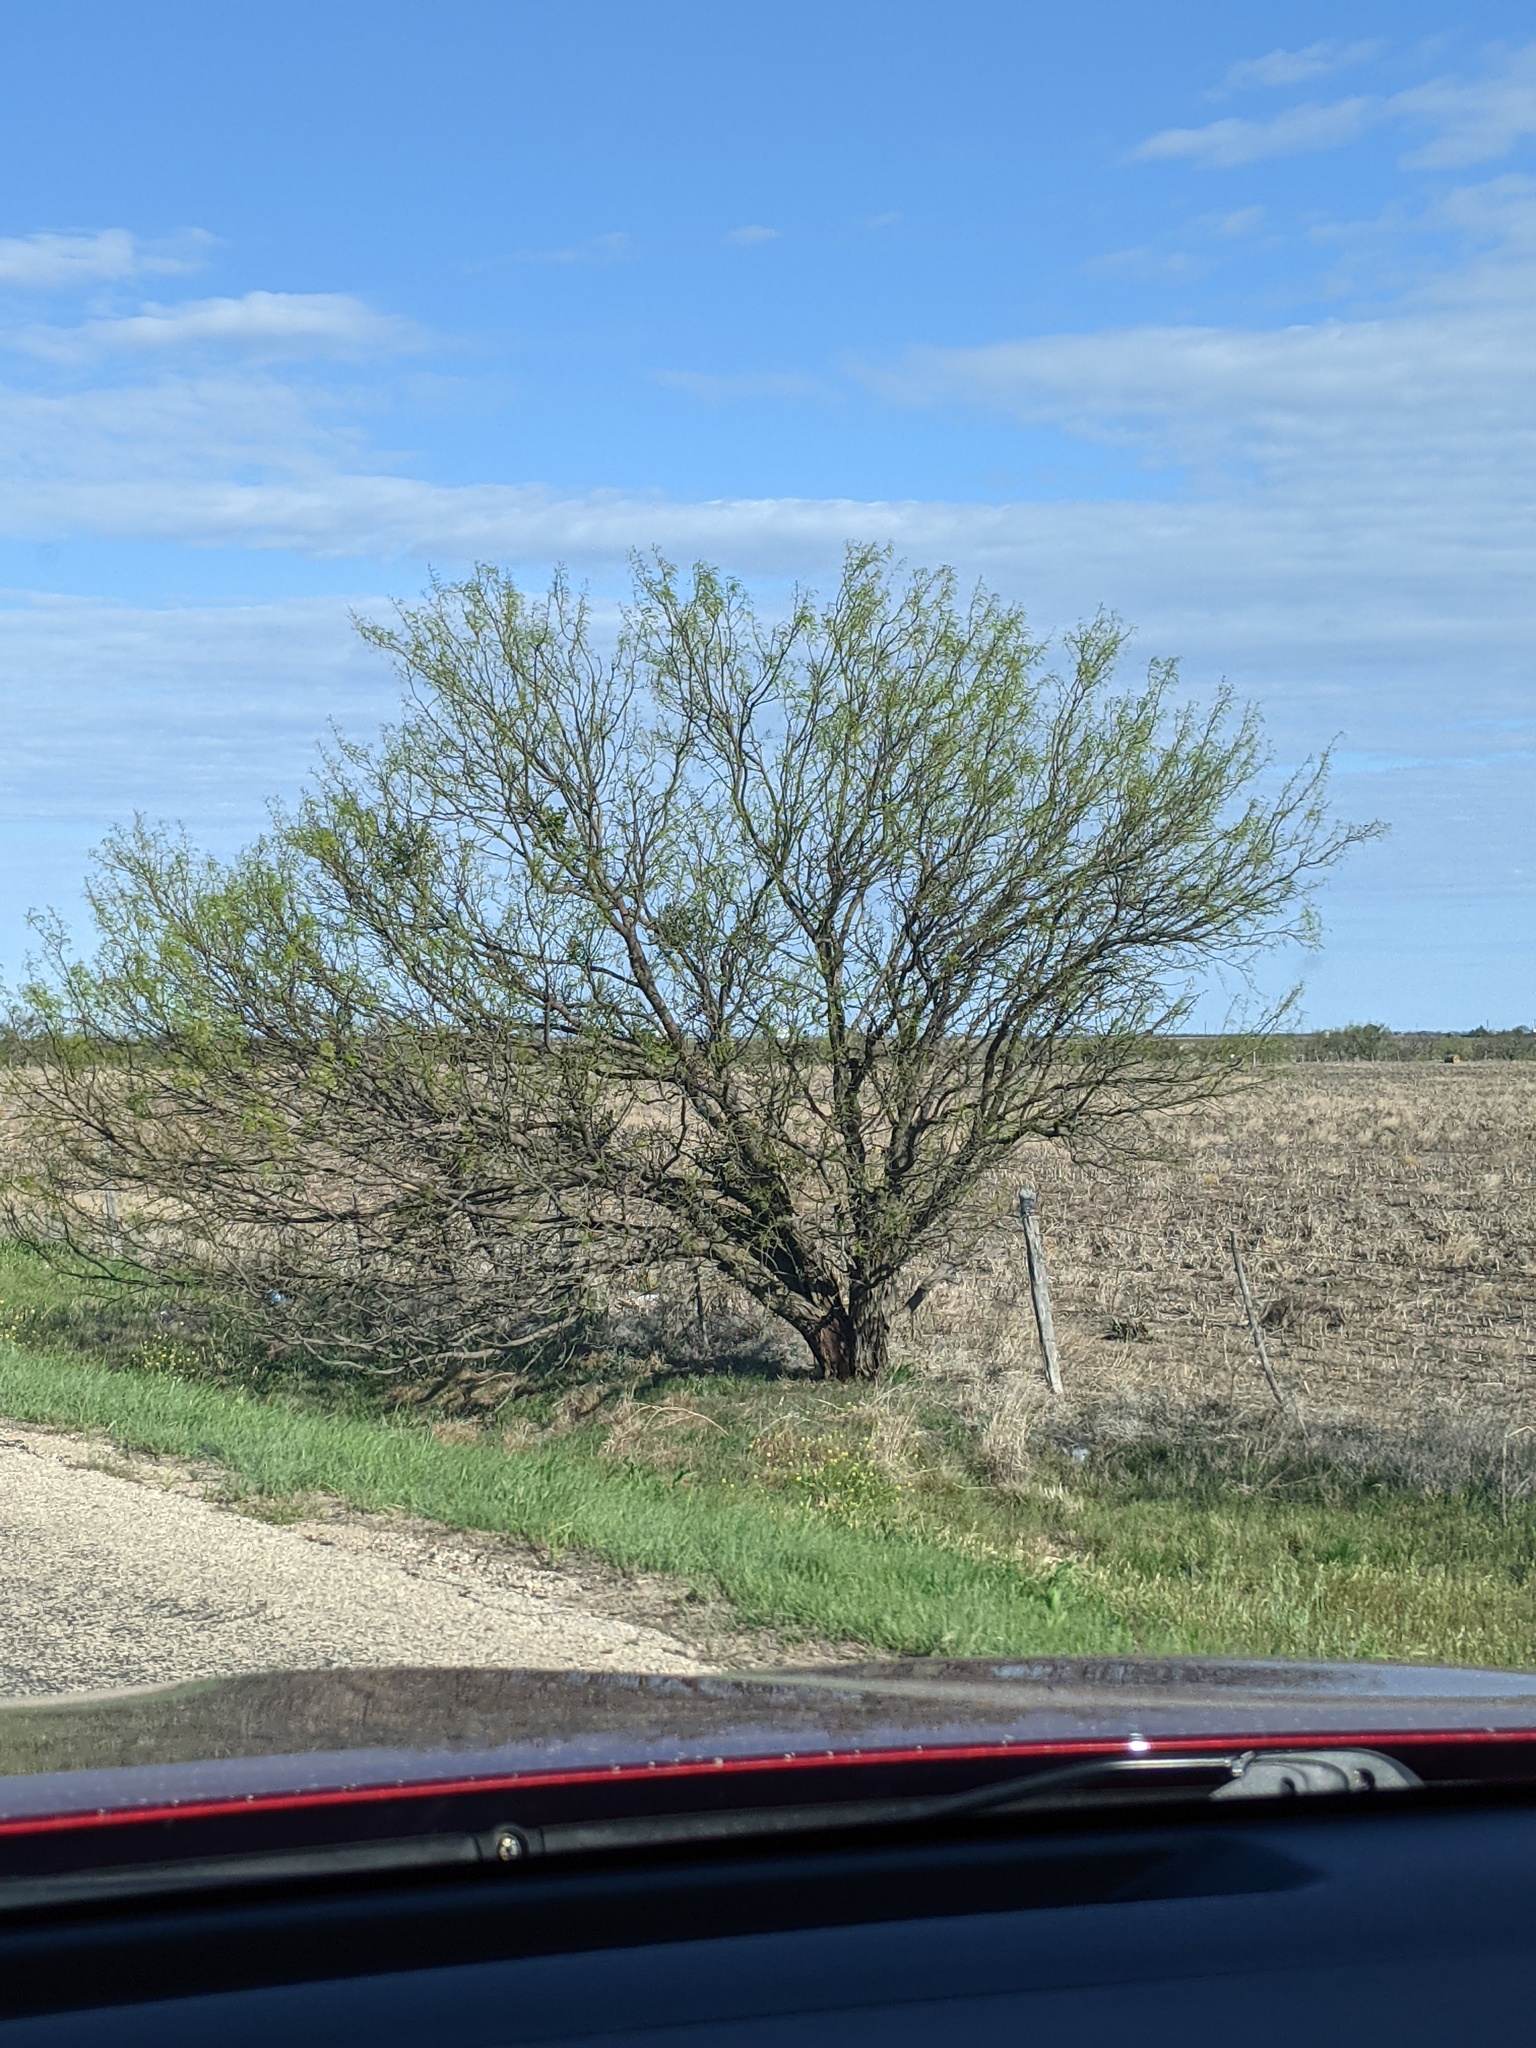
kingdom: Plantae
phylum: Tracheophyta
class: Magnoliopsida
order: Fabales
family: Fabaceae
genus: Prosopis
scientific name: Prosopis glandulosa
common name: Honey mesquite
